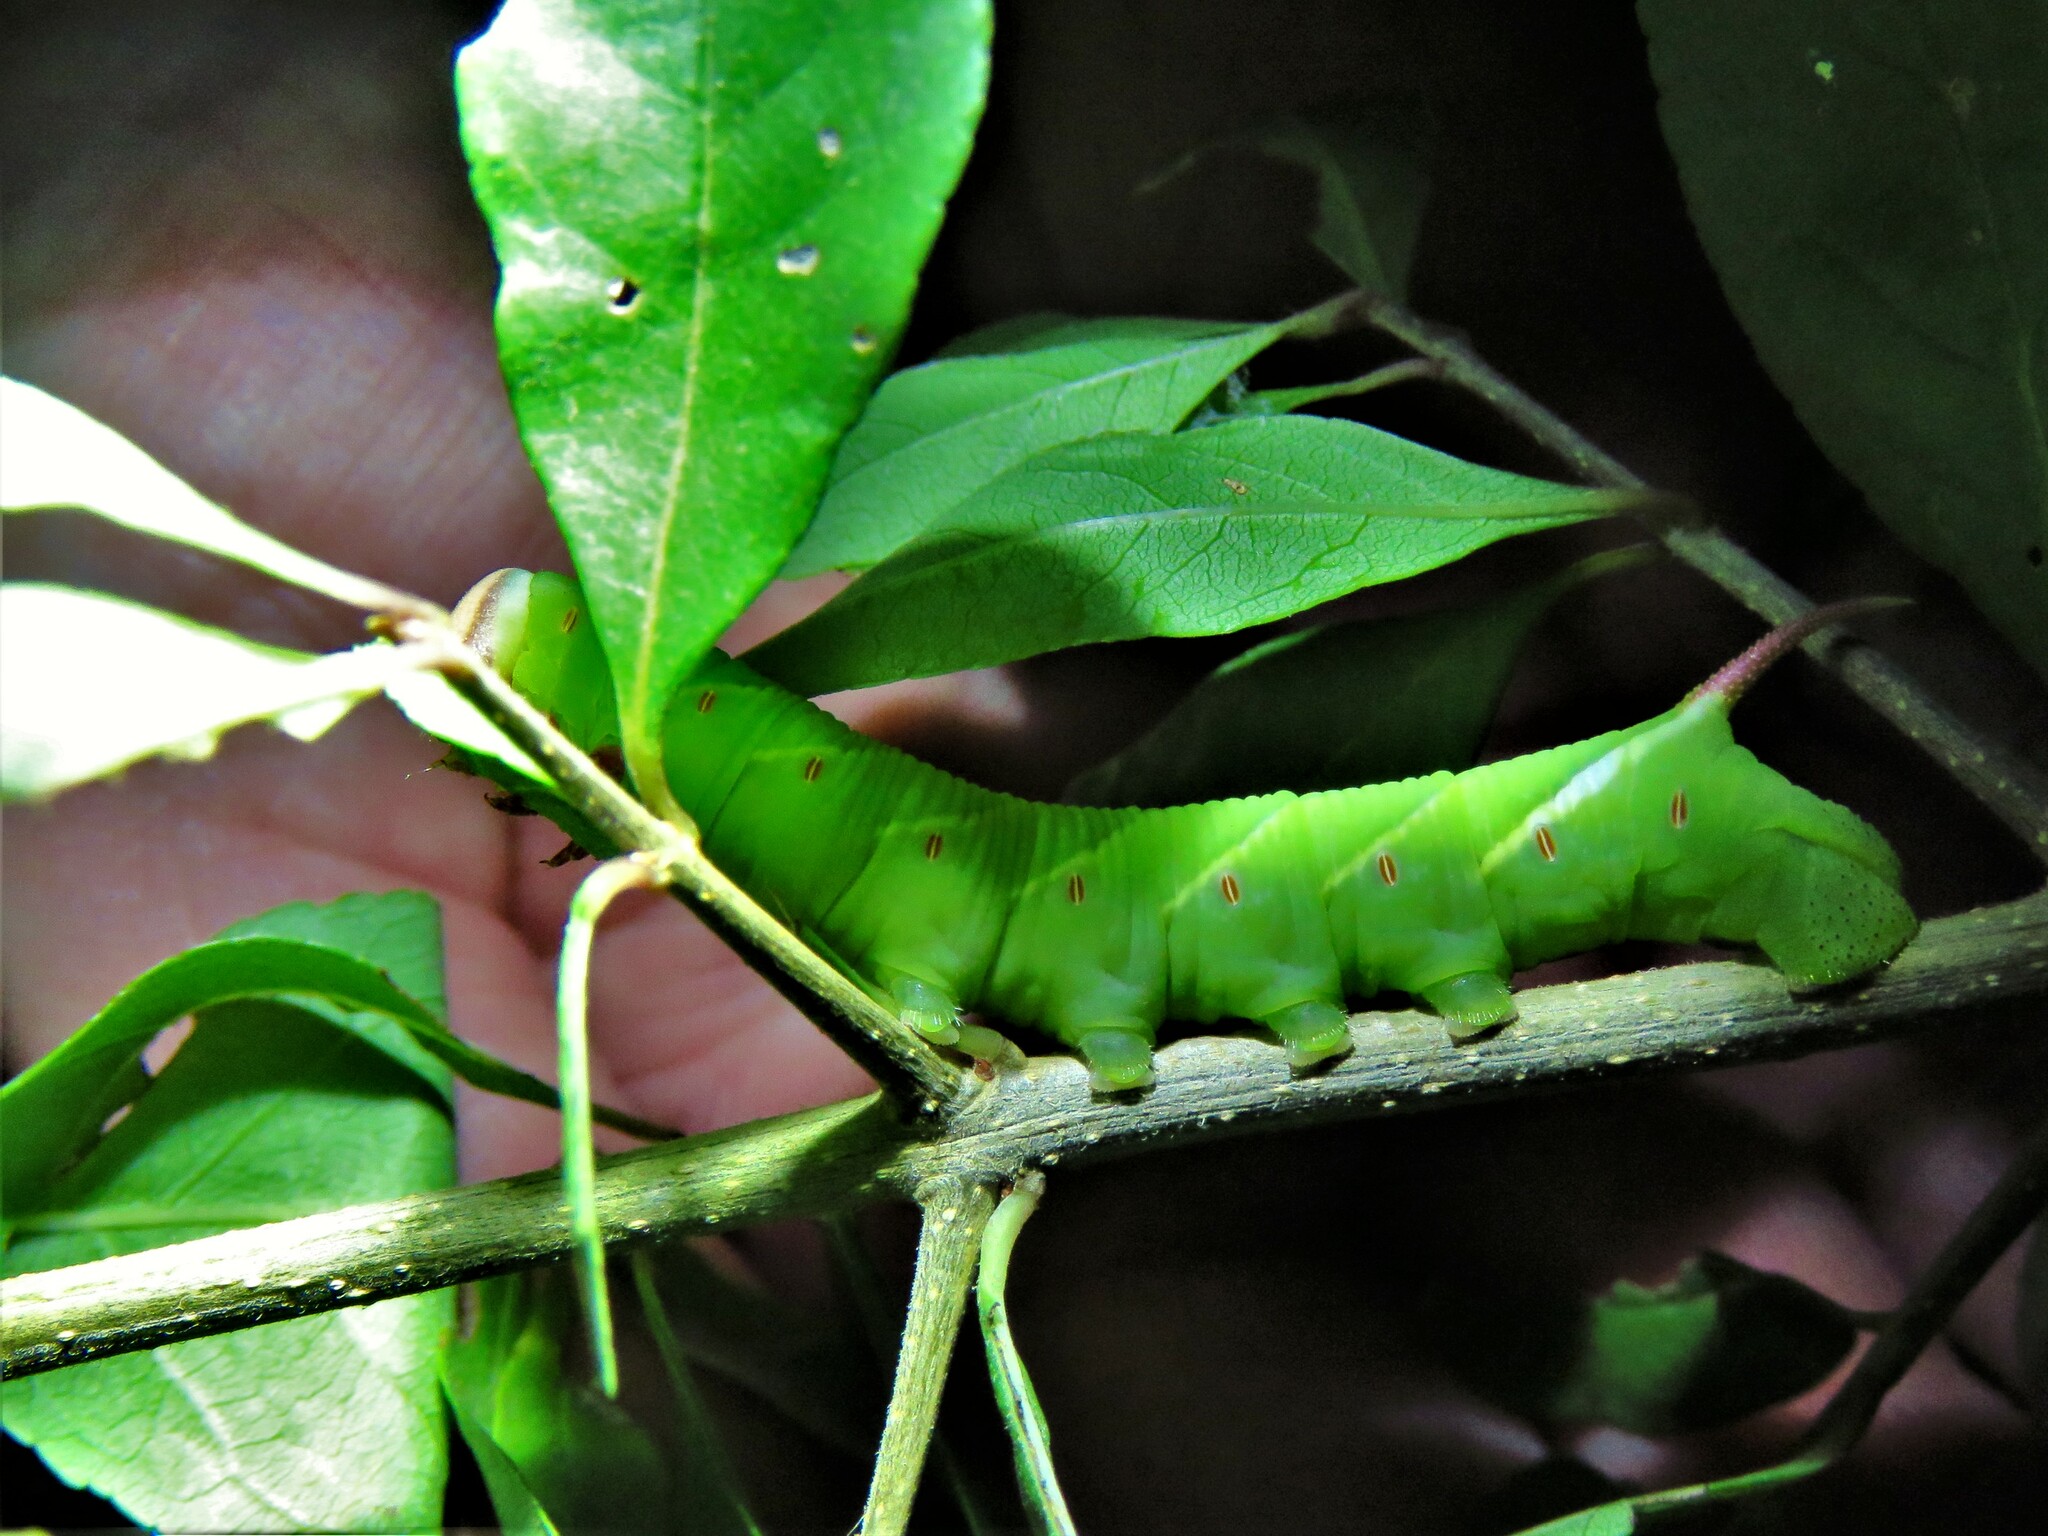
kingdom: Animalia
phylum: Arthropoda
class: Insecta
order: Lepidoptera
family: Sphingidae
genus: Ceratomia
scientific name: Ceratomia undulosa
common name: Waved sphinx
